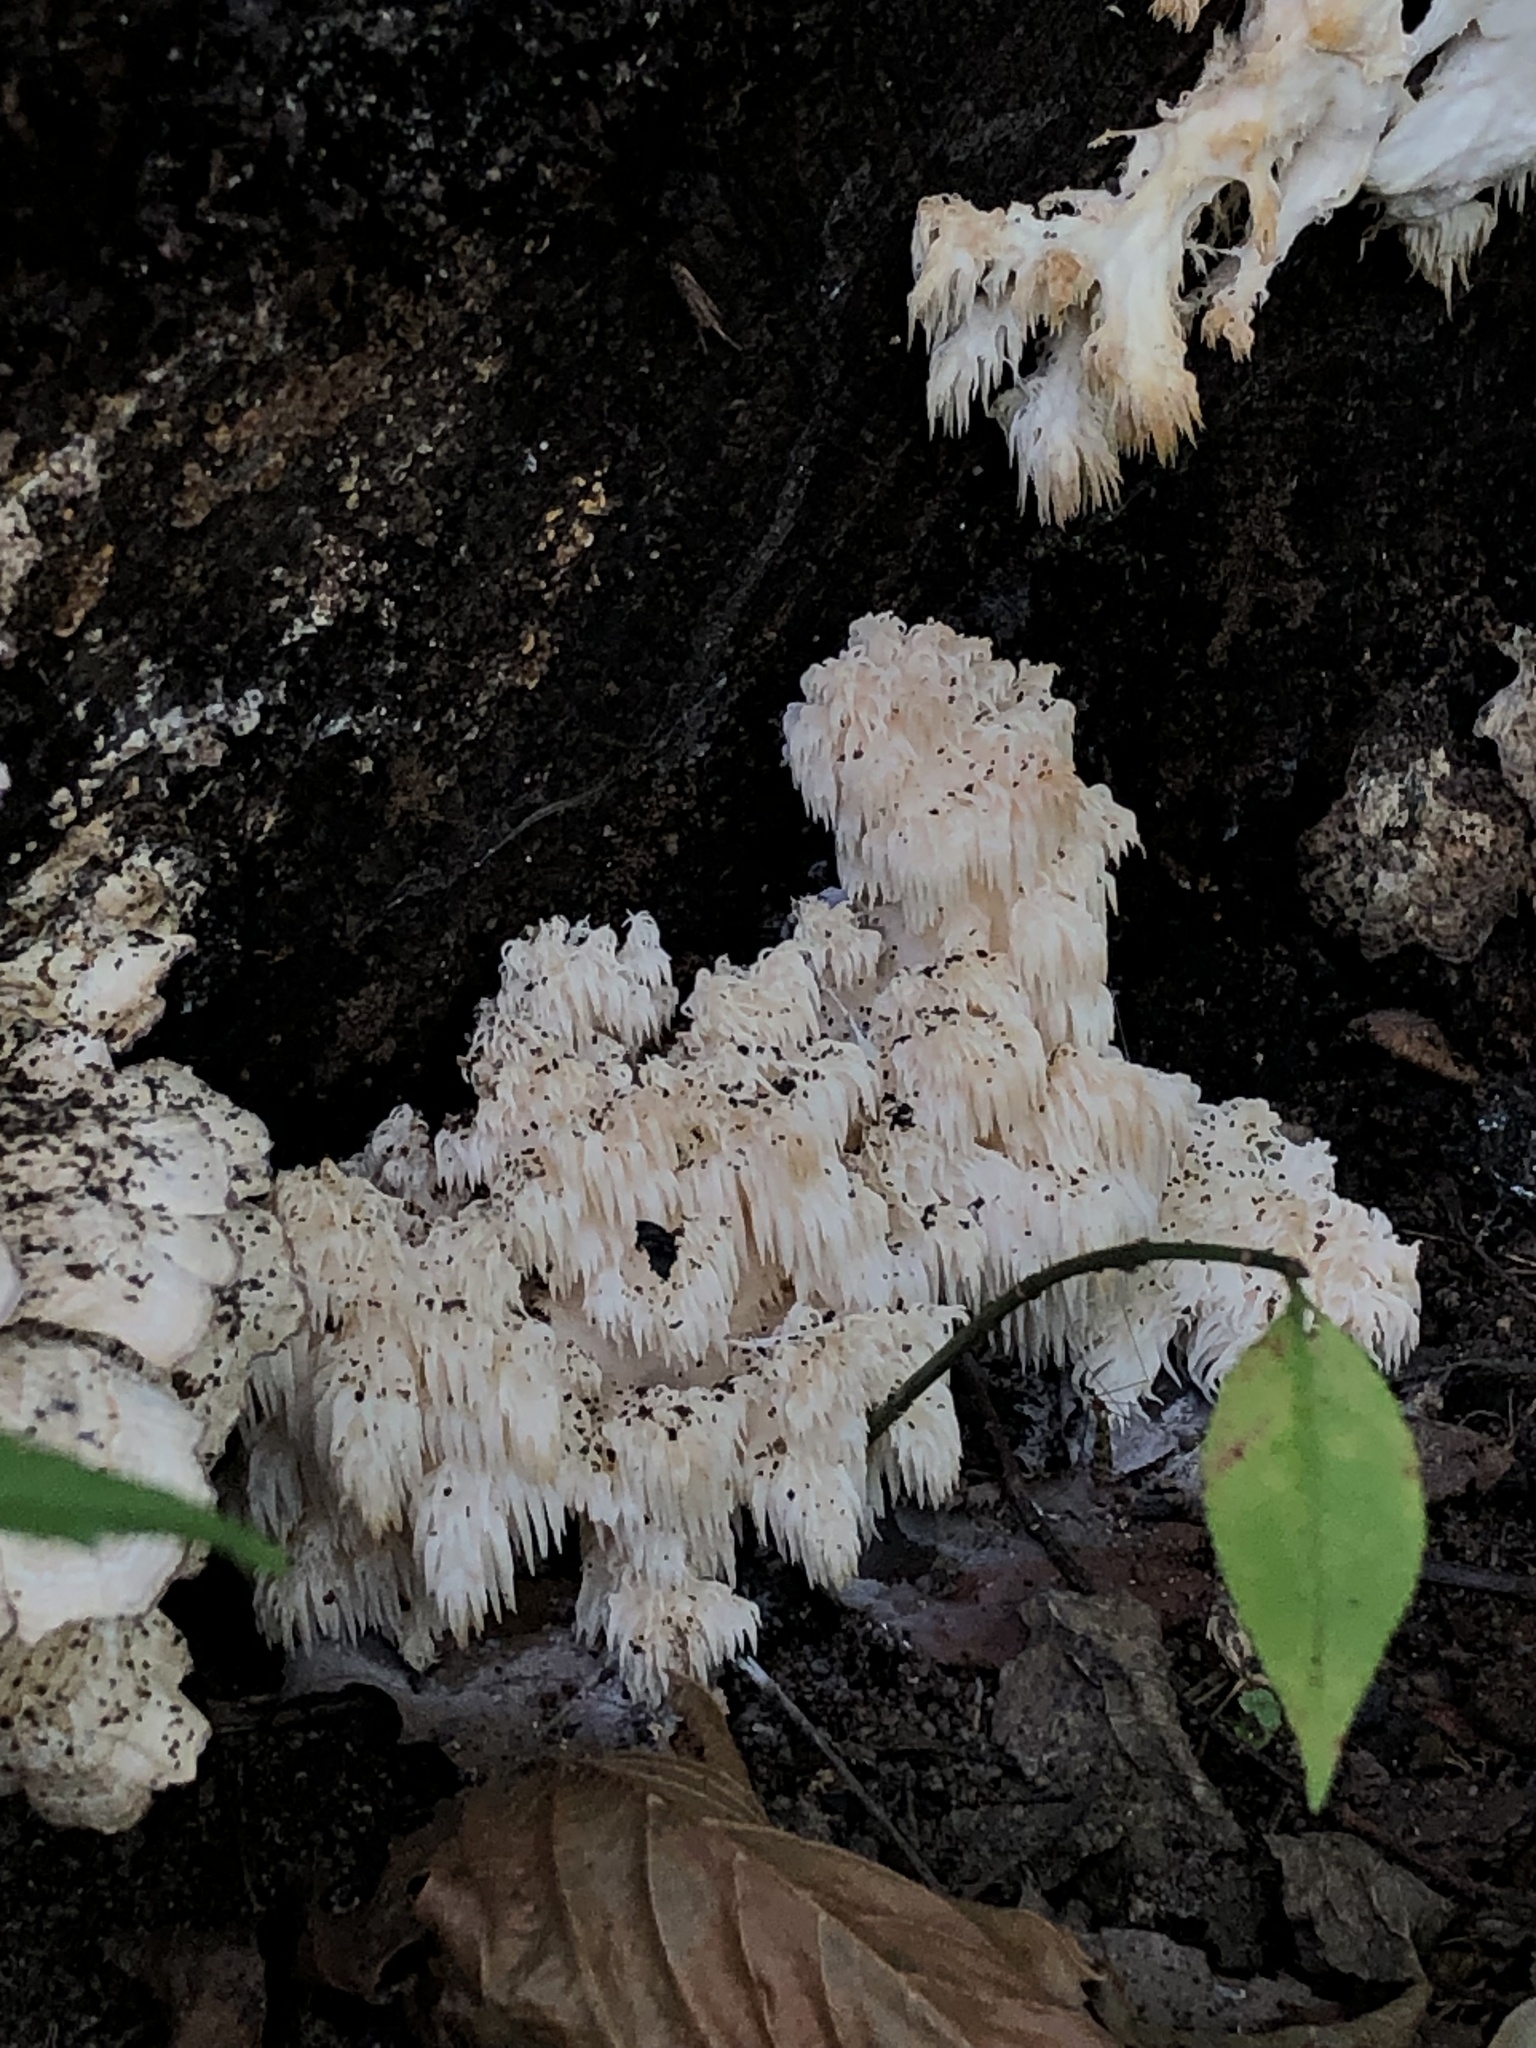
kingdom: Fungi
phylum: Basidiomycota
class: Agaricomycetes
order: Russulales
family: Hericiaceae
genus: Hericium
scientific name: Hericium coralloides
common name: Coral tooth
